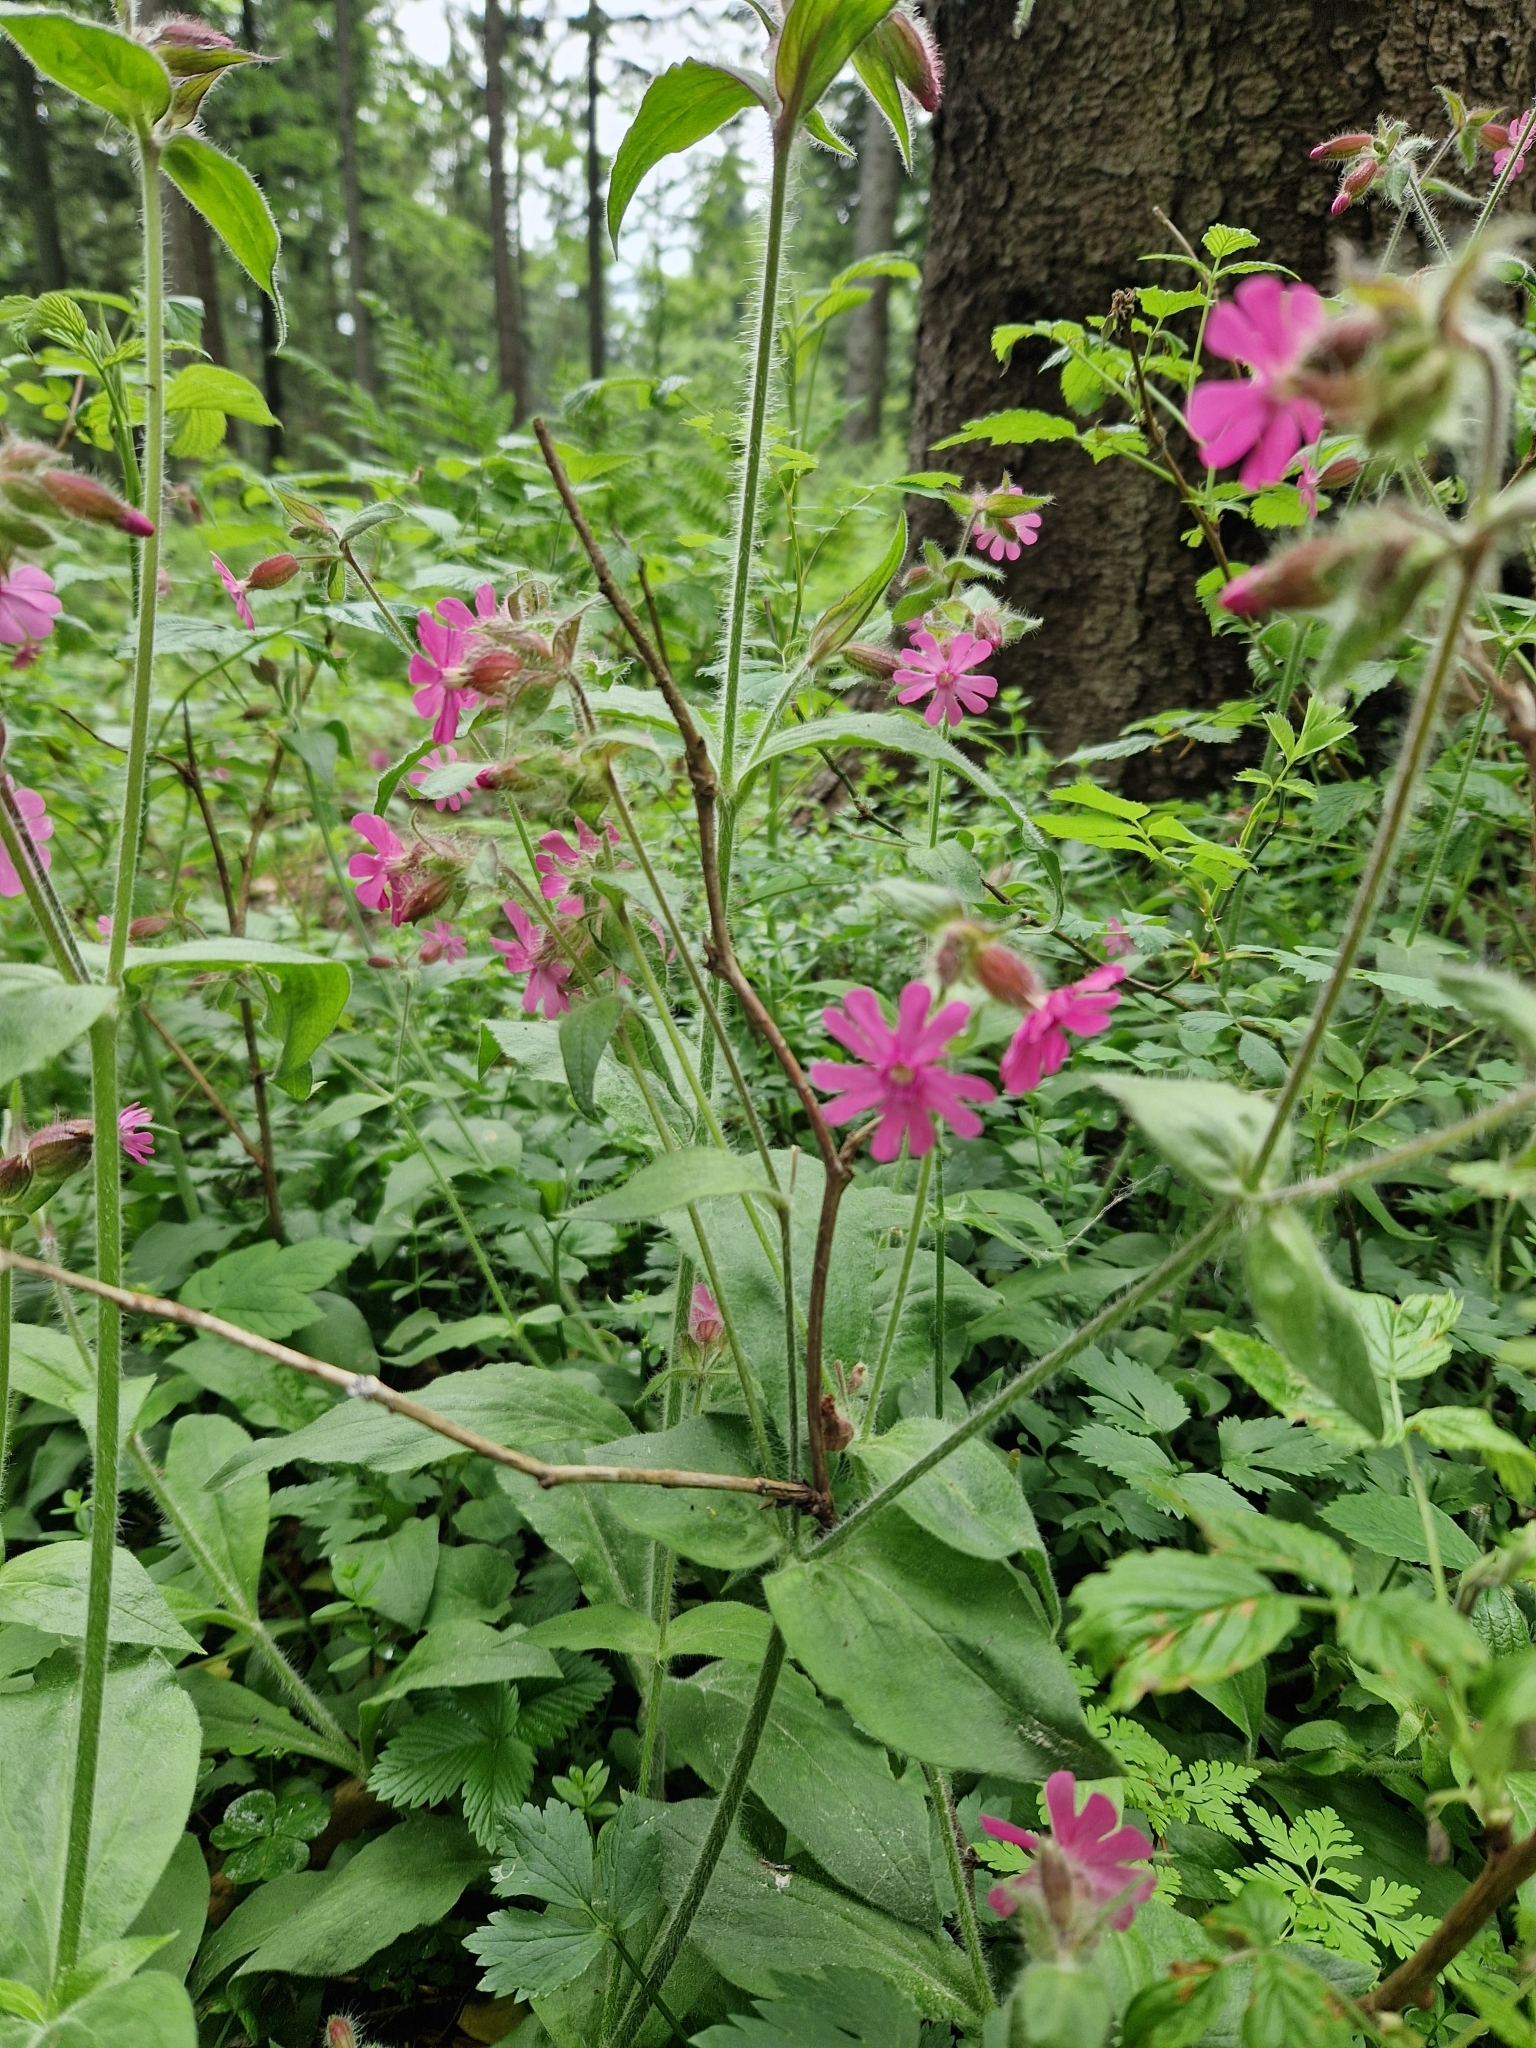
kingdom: Plantae
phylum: Tracheophyta
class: Magnoliopsida
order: Caryophyllales
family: Caryophyllaceae
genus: Silene
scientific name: Silene dioica
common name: Red campion
